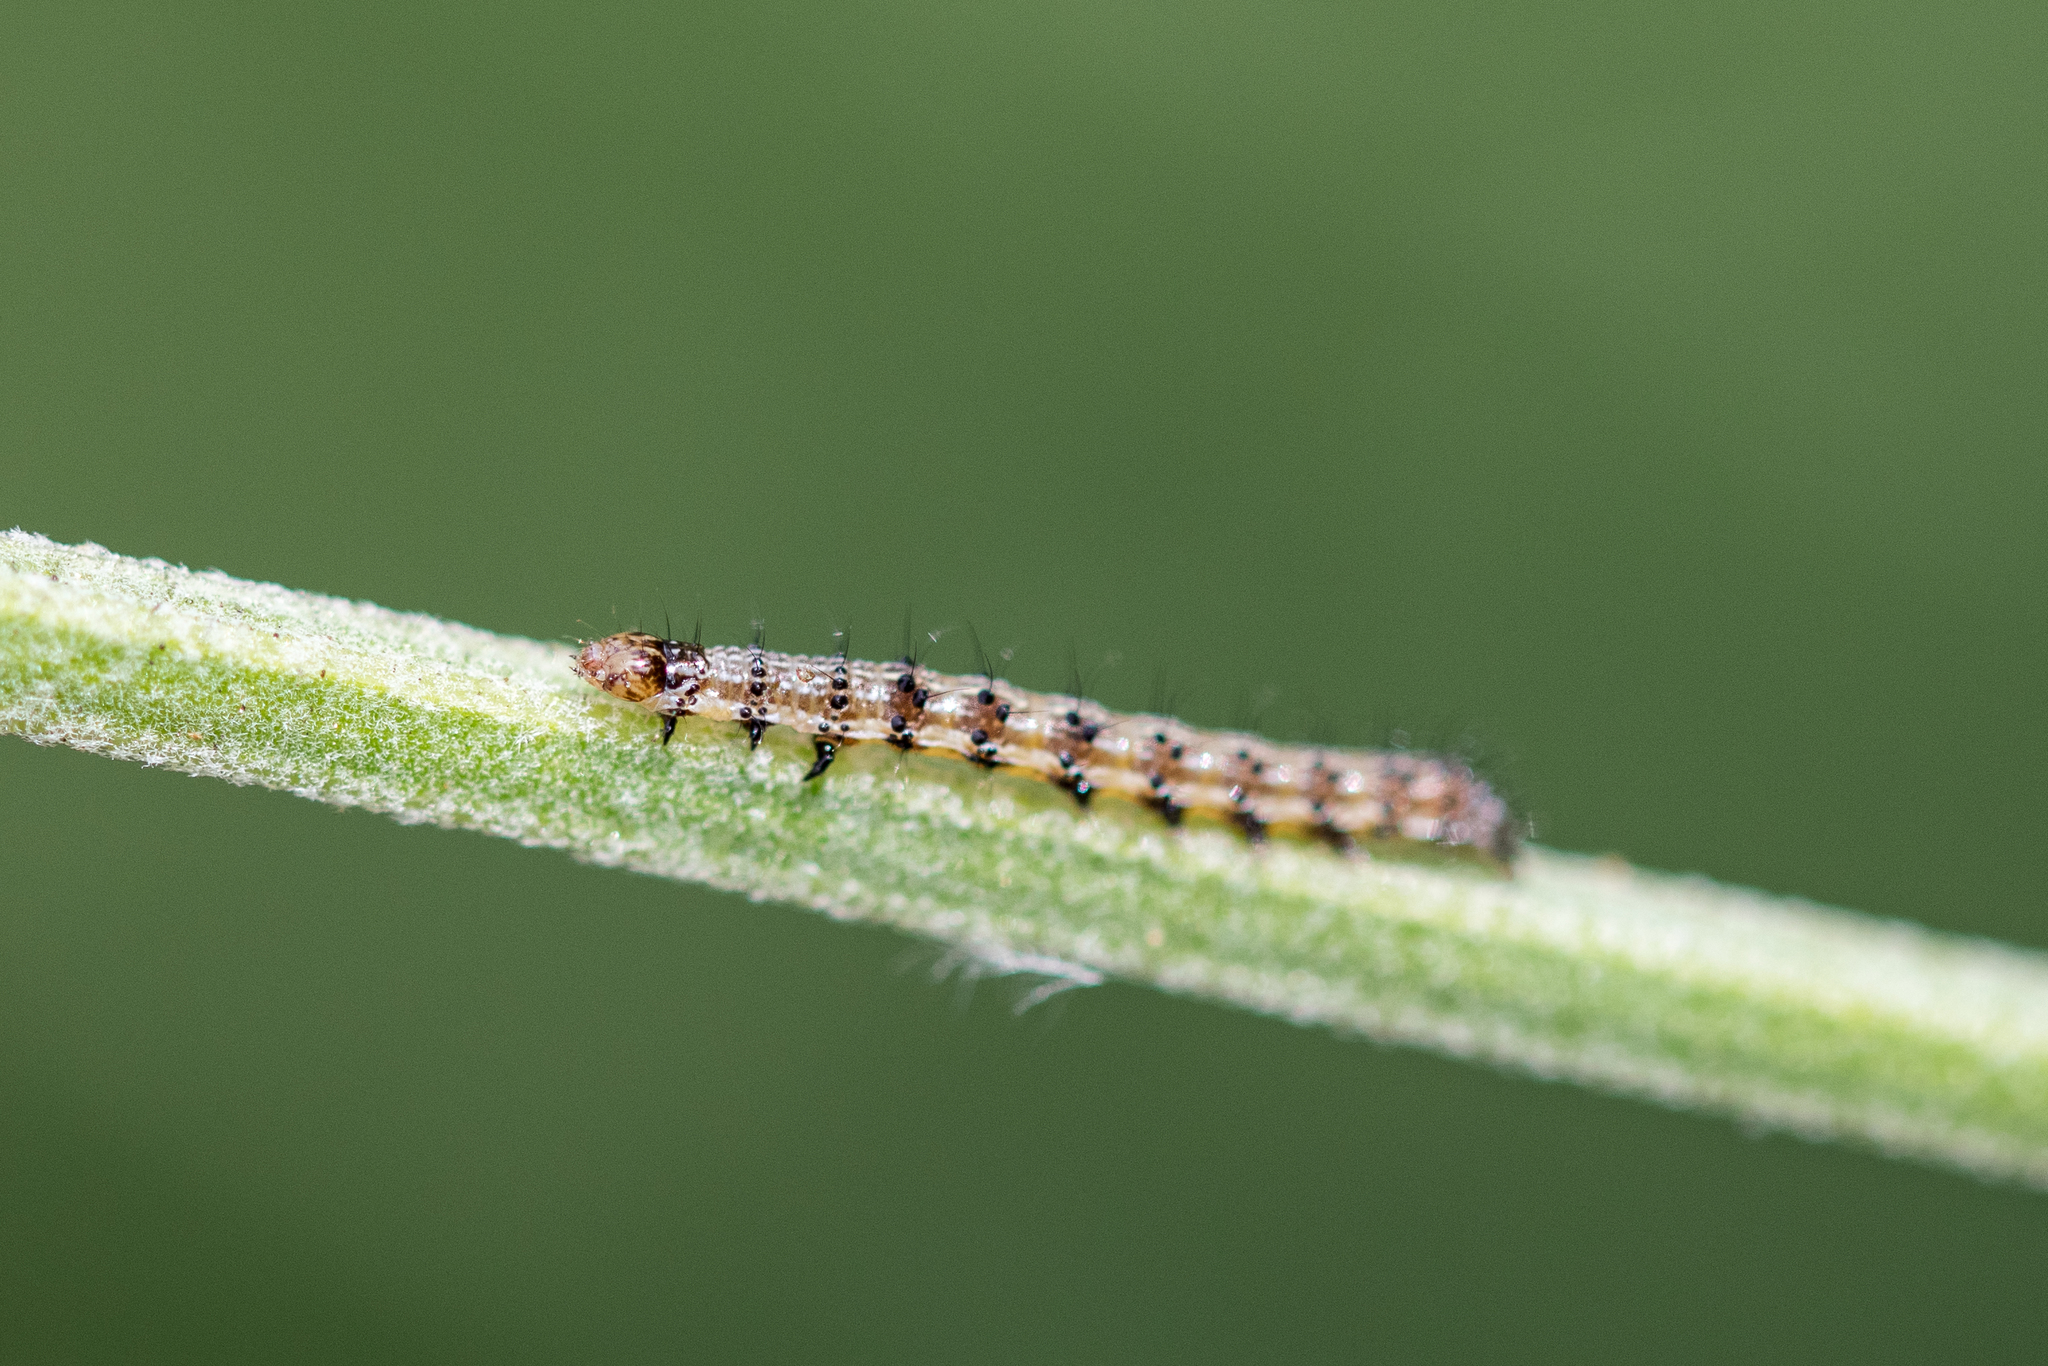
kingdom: Animalia
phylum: Arthropoda
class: Insecta
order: Lepidoptera
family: Noctuidae
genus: Helicoverpa
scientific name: Helicoverpa armigera
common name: Cotton bollworm
